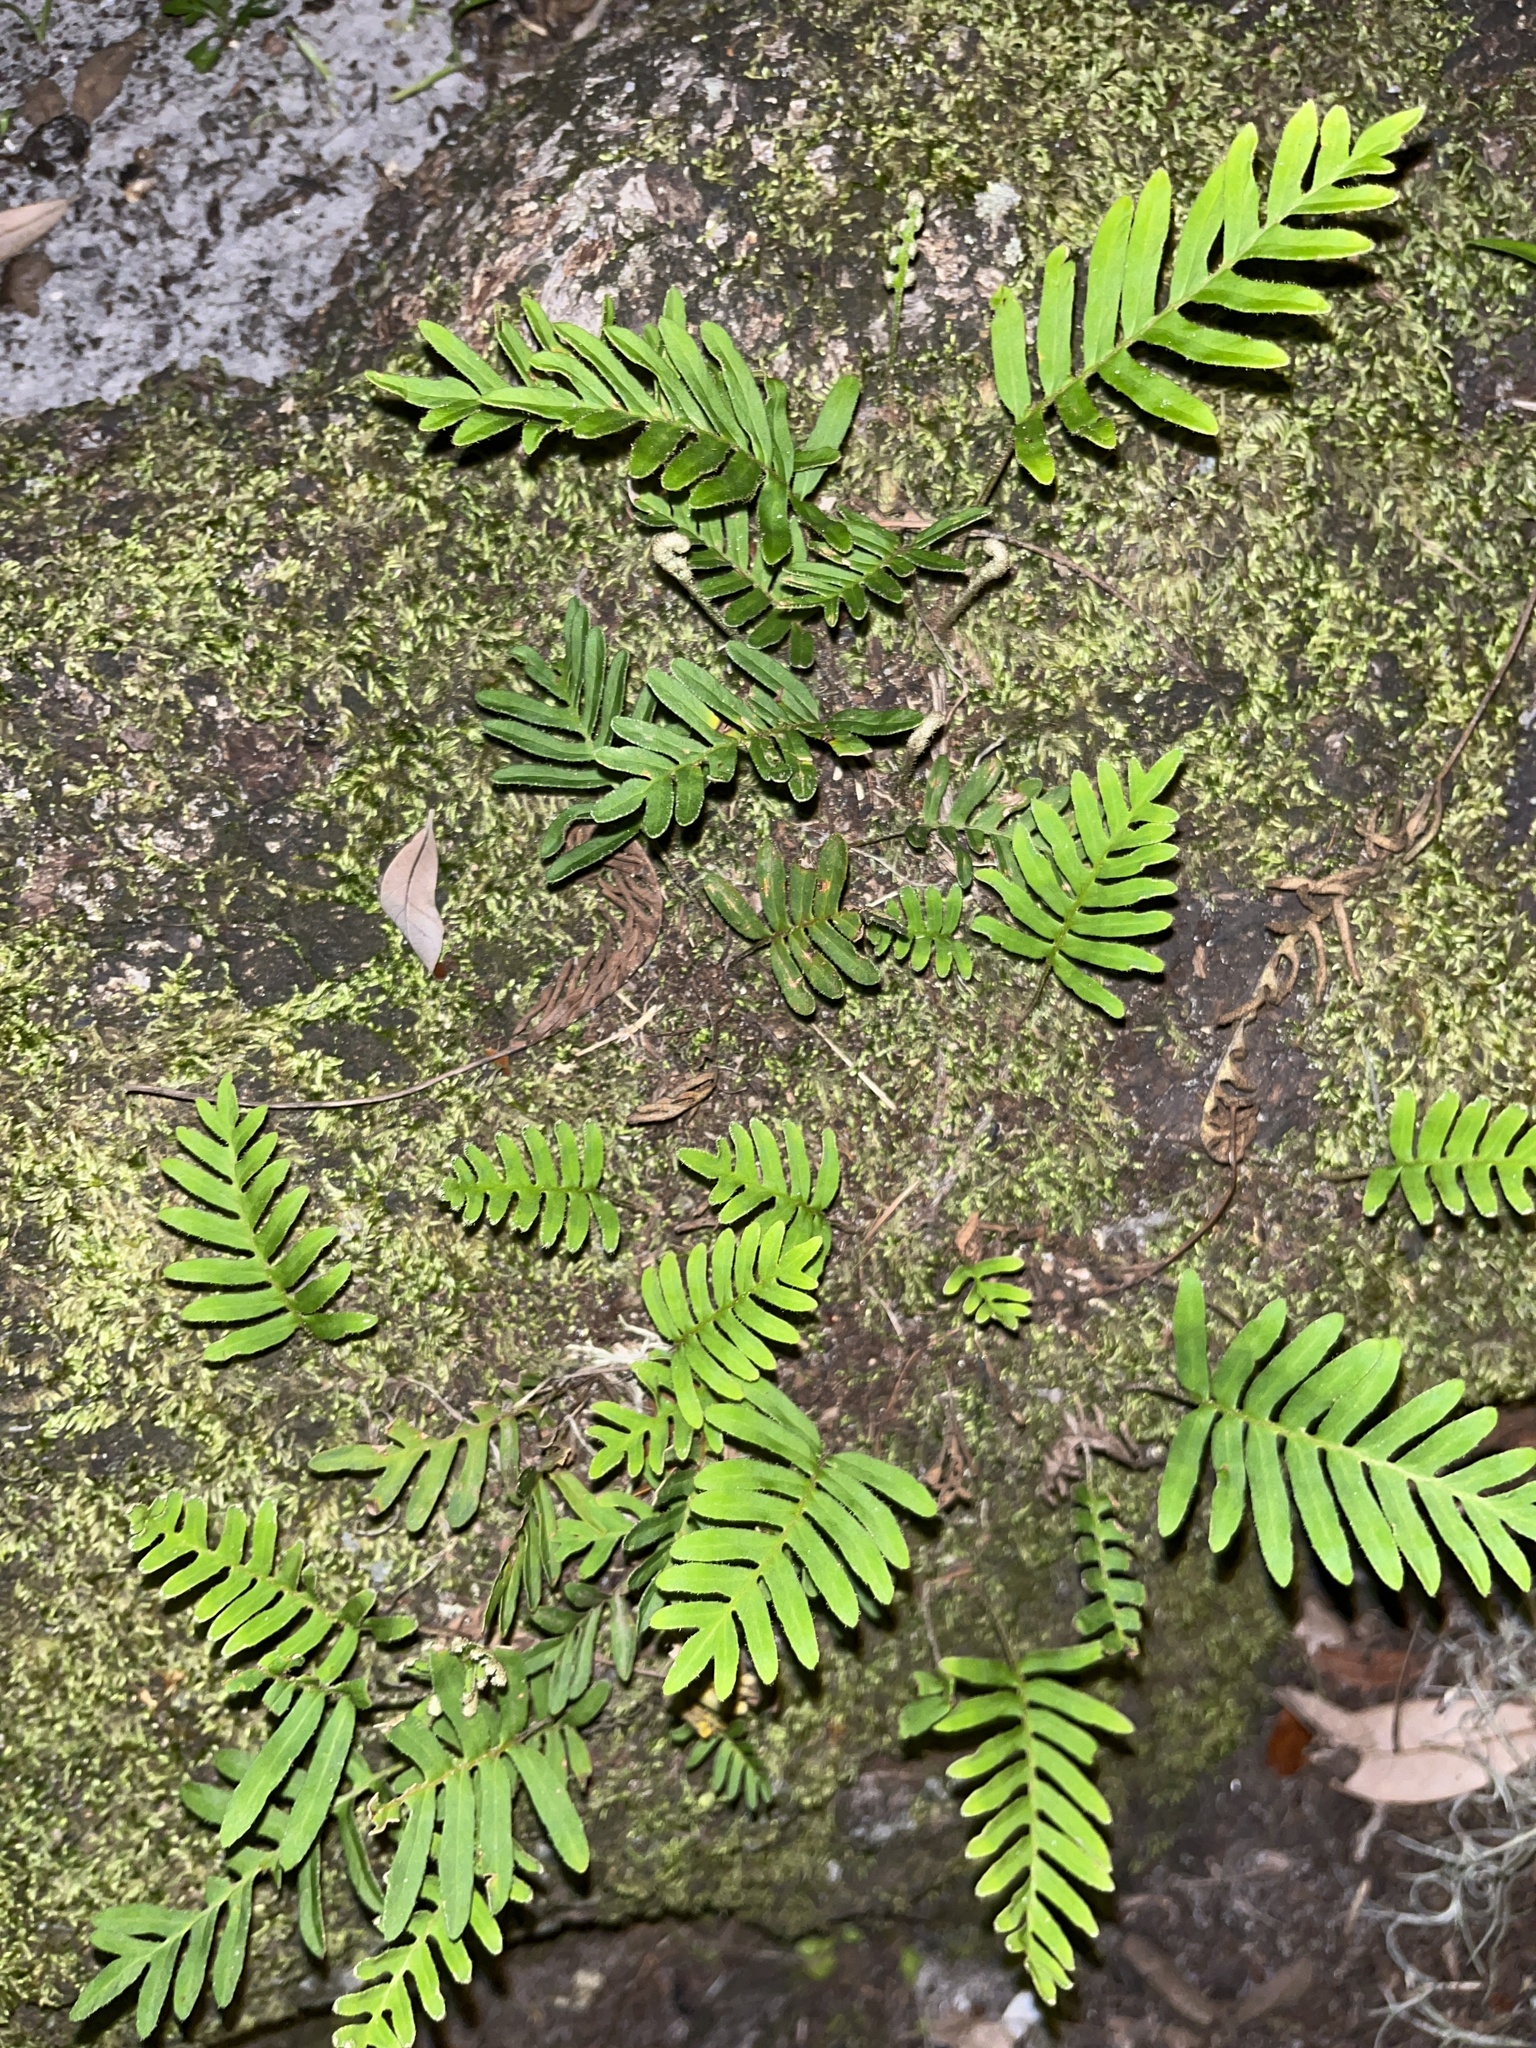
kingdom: Plantae
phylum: Tracheophyta
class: Polypodiopsida
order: Polypodiales
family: Polypodiaceae
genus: Pleopeltis
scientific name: Pleopeltis michauxiana
